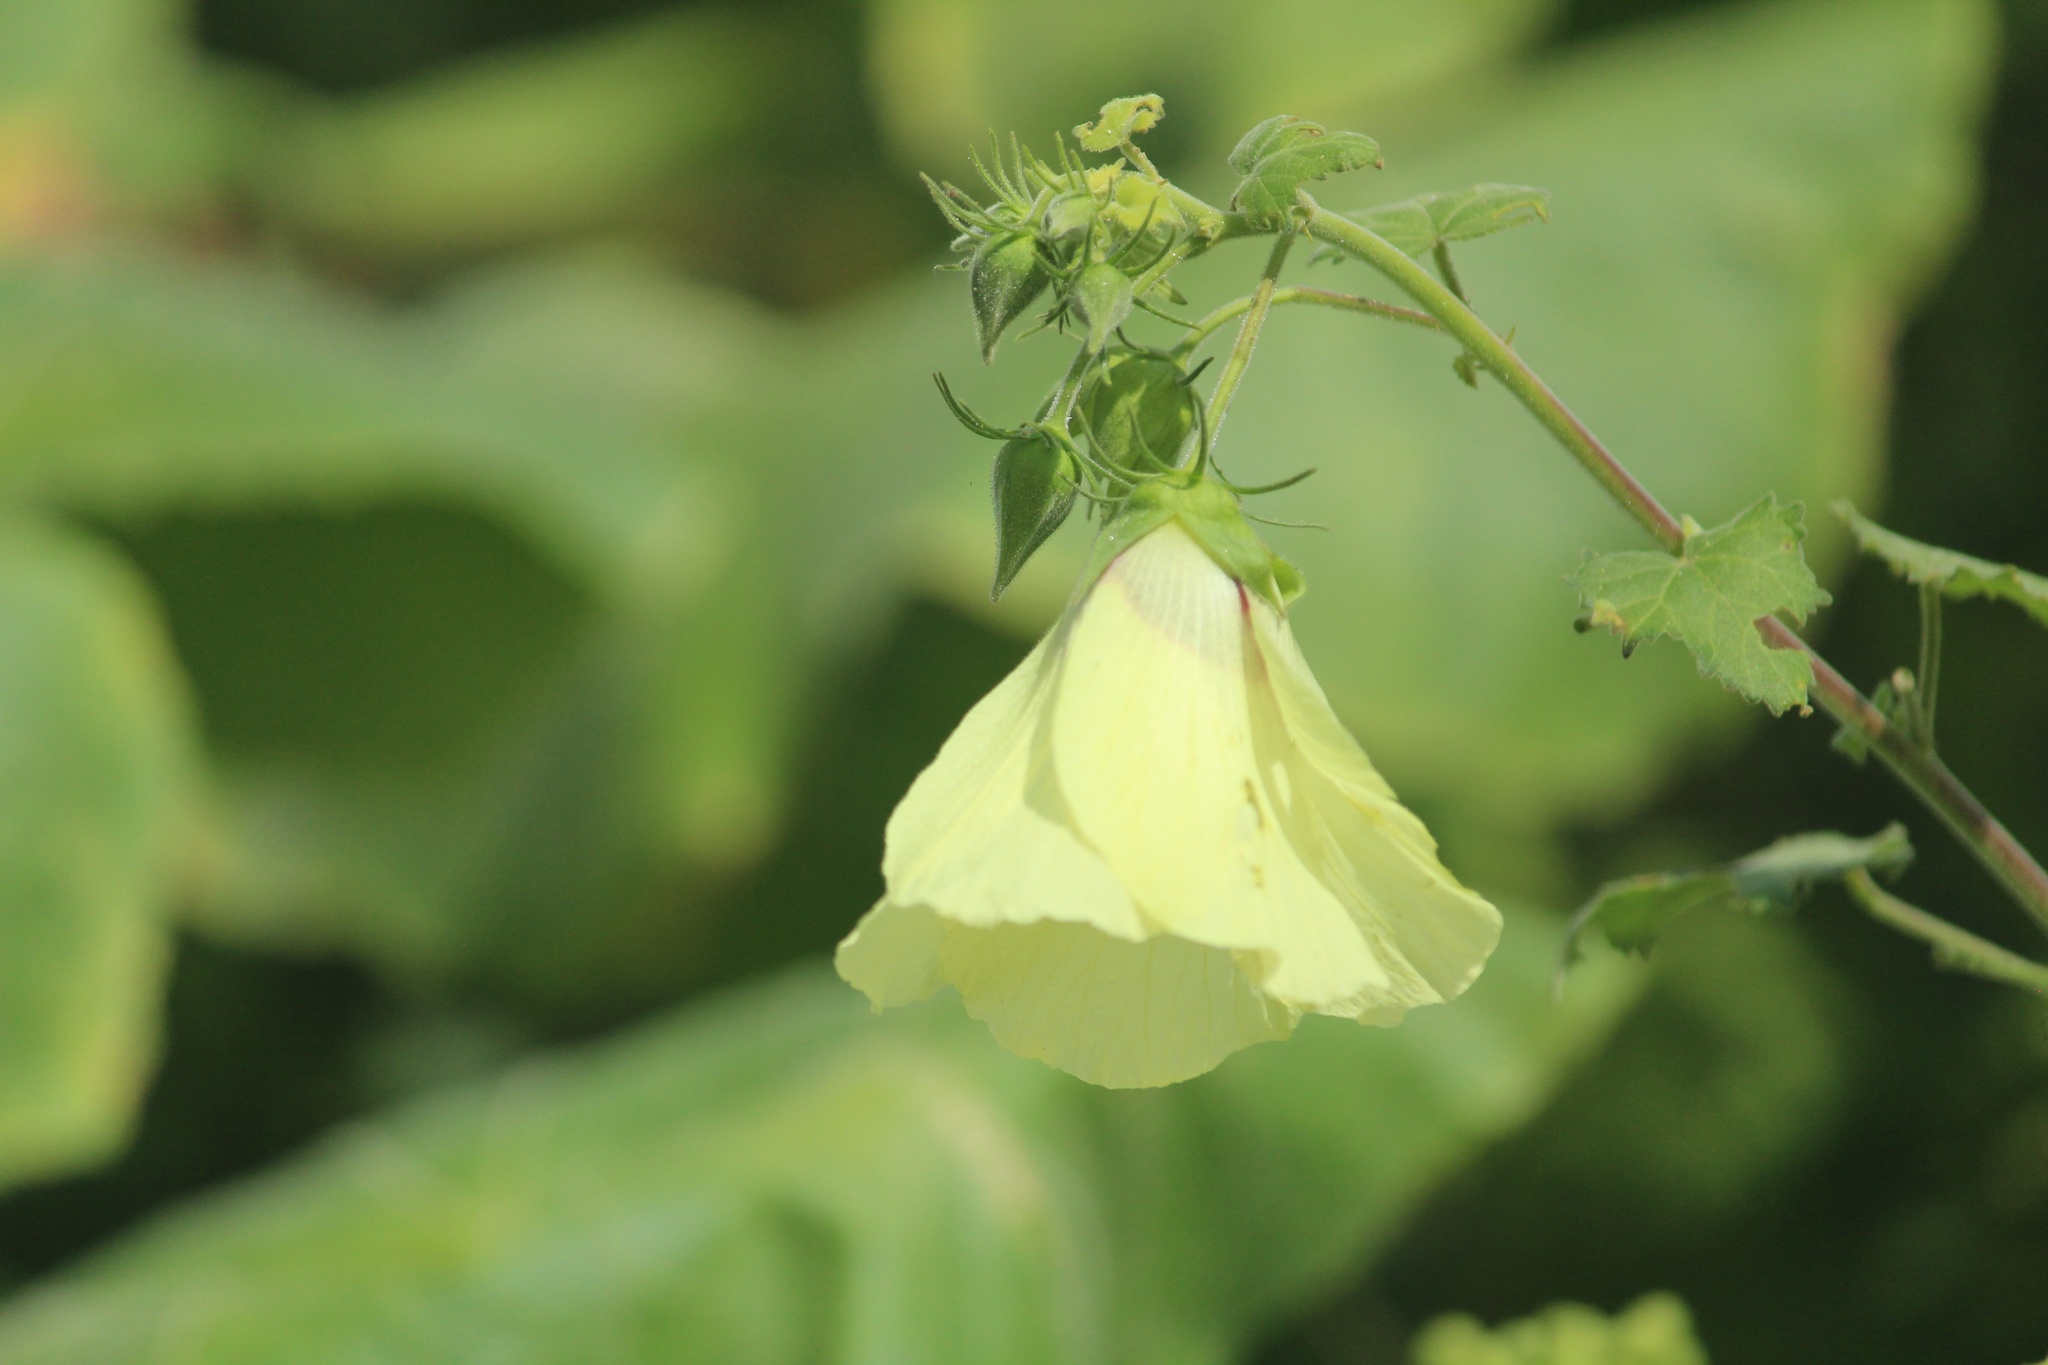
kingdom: Plantae
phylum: Tracheophyta
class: Magnoliopsida
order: Malvales
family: Malvaceae
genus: Hibiscus
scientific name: Hibiscus vitifolius
